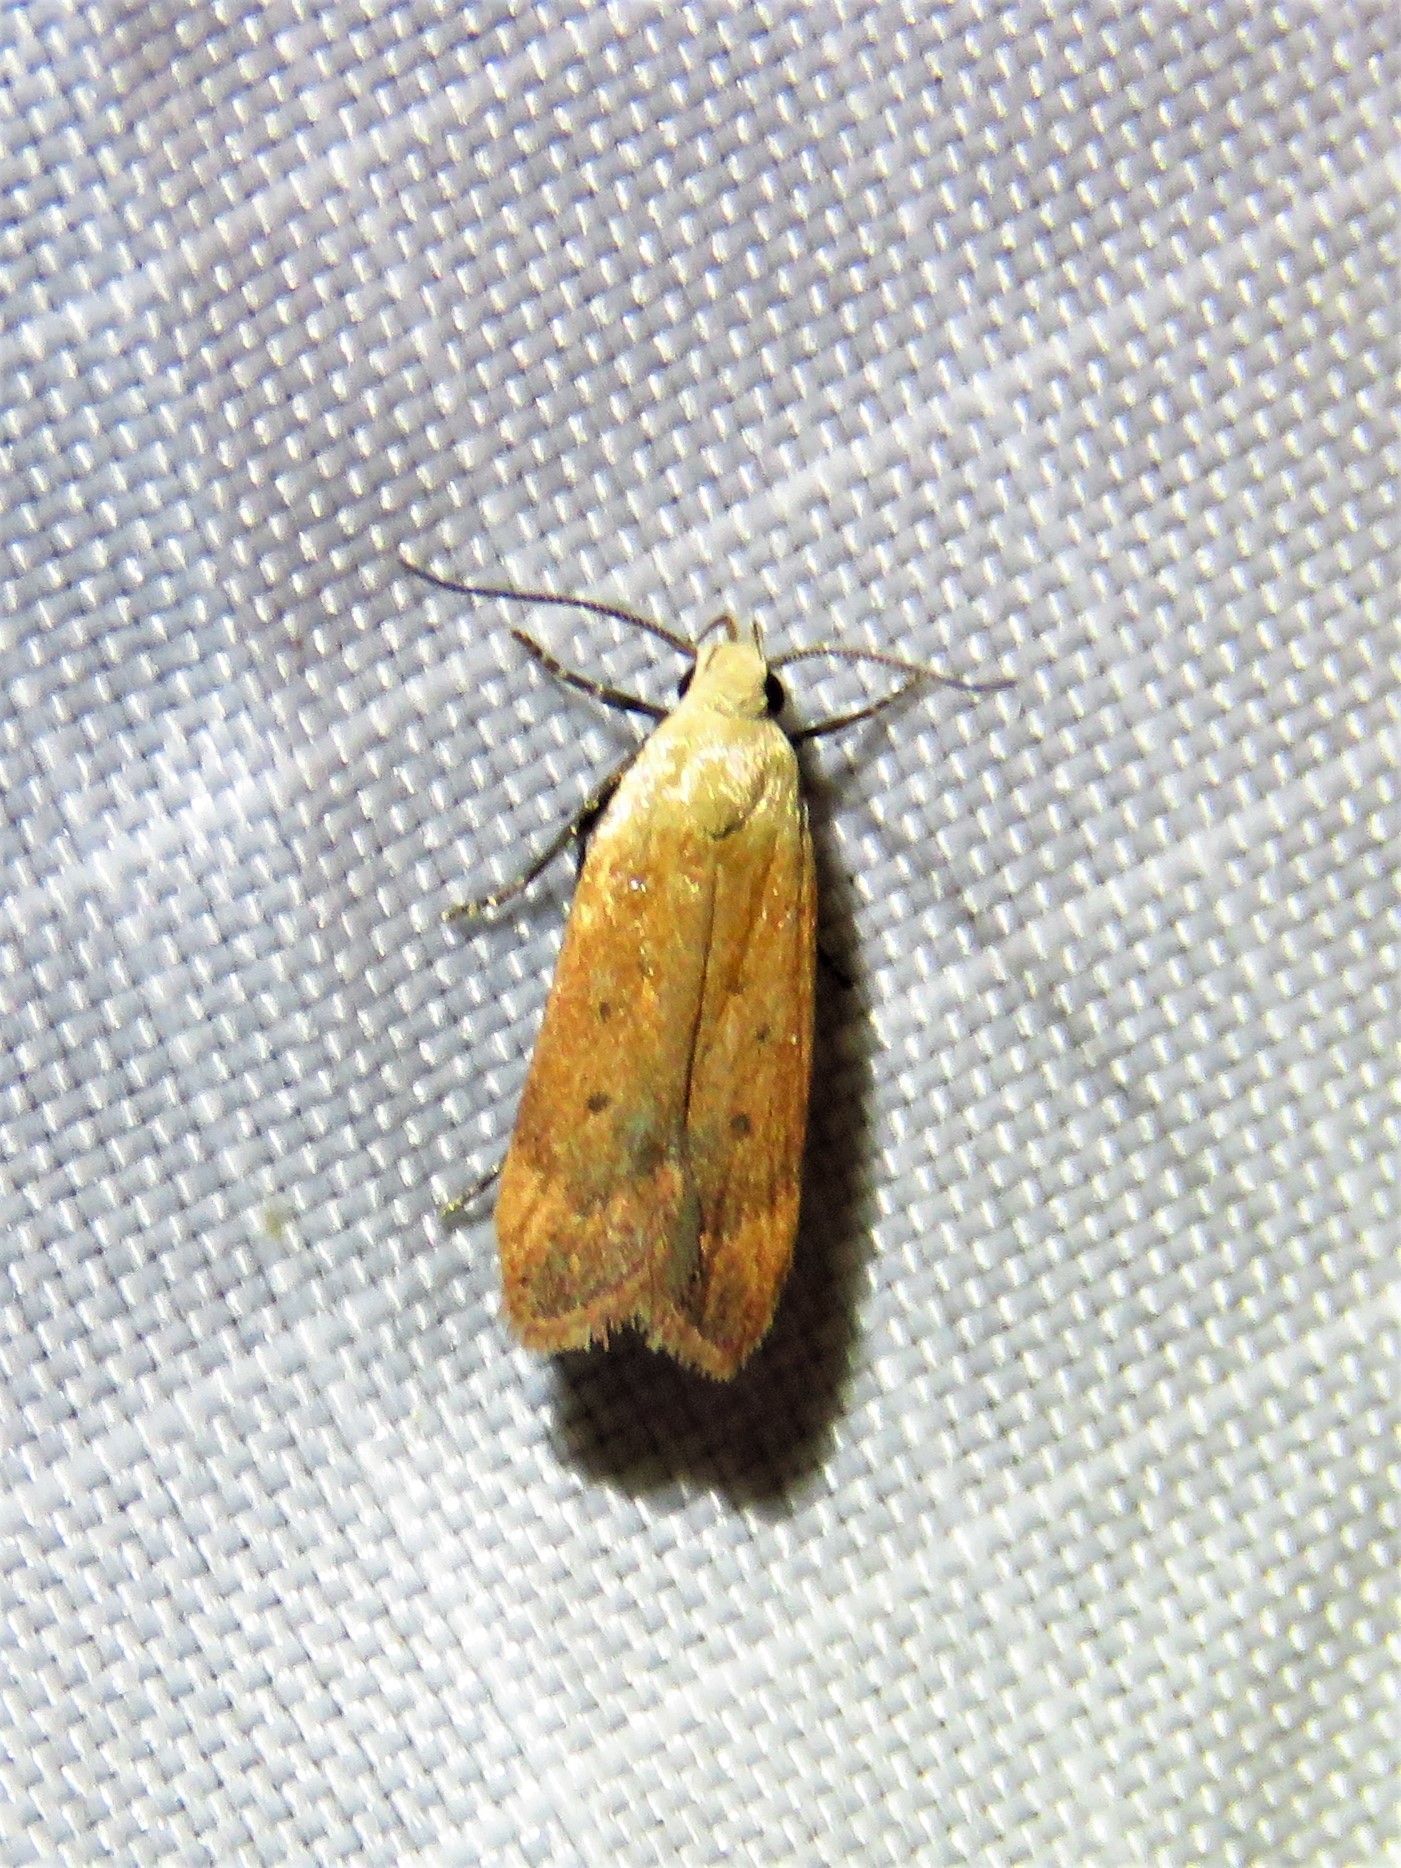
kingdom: Animalia
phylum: Arthropoda
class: Insecta
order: Lepidoptera
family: Gelechiidae
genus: Anacampsis
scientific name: Anacampsis fullonella
